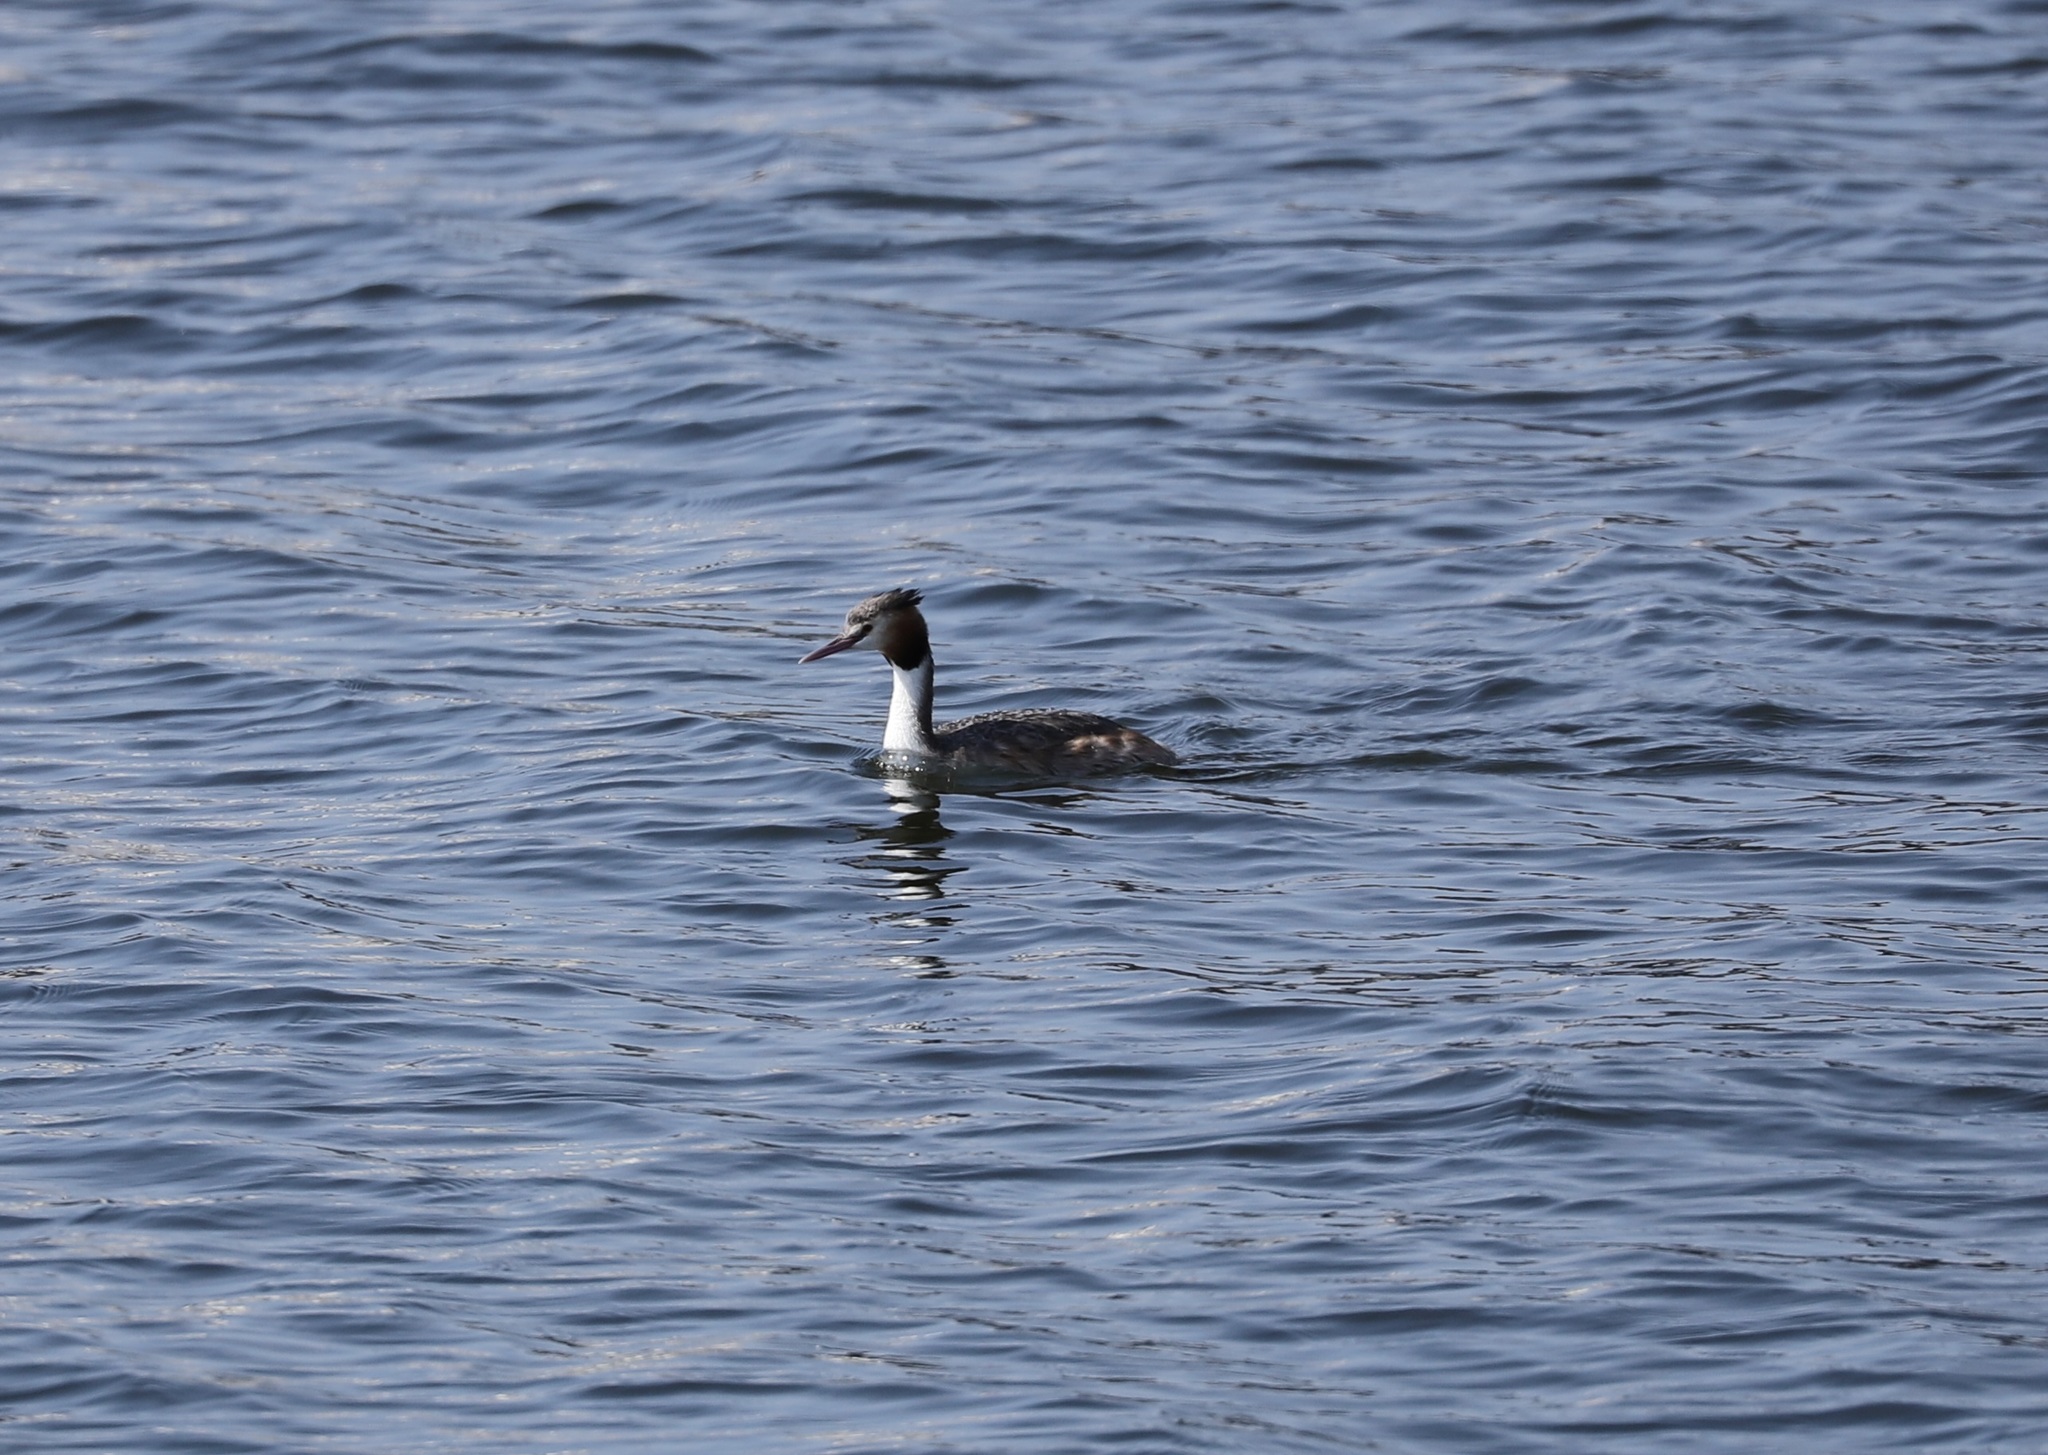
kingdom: Animalia
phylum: Chordata
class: Aves
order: Podicipediformes
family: Podicipedidae
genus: Podiceps
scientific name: Podiceps cristatus
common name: Great crested grebe
